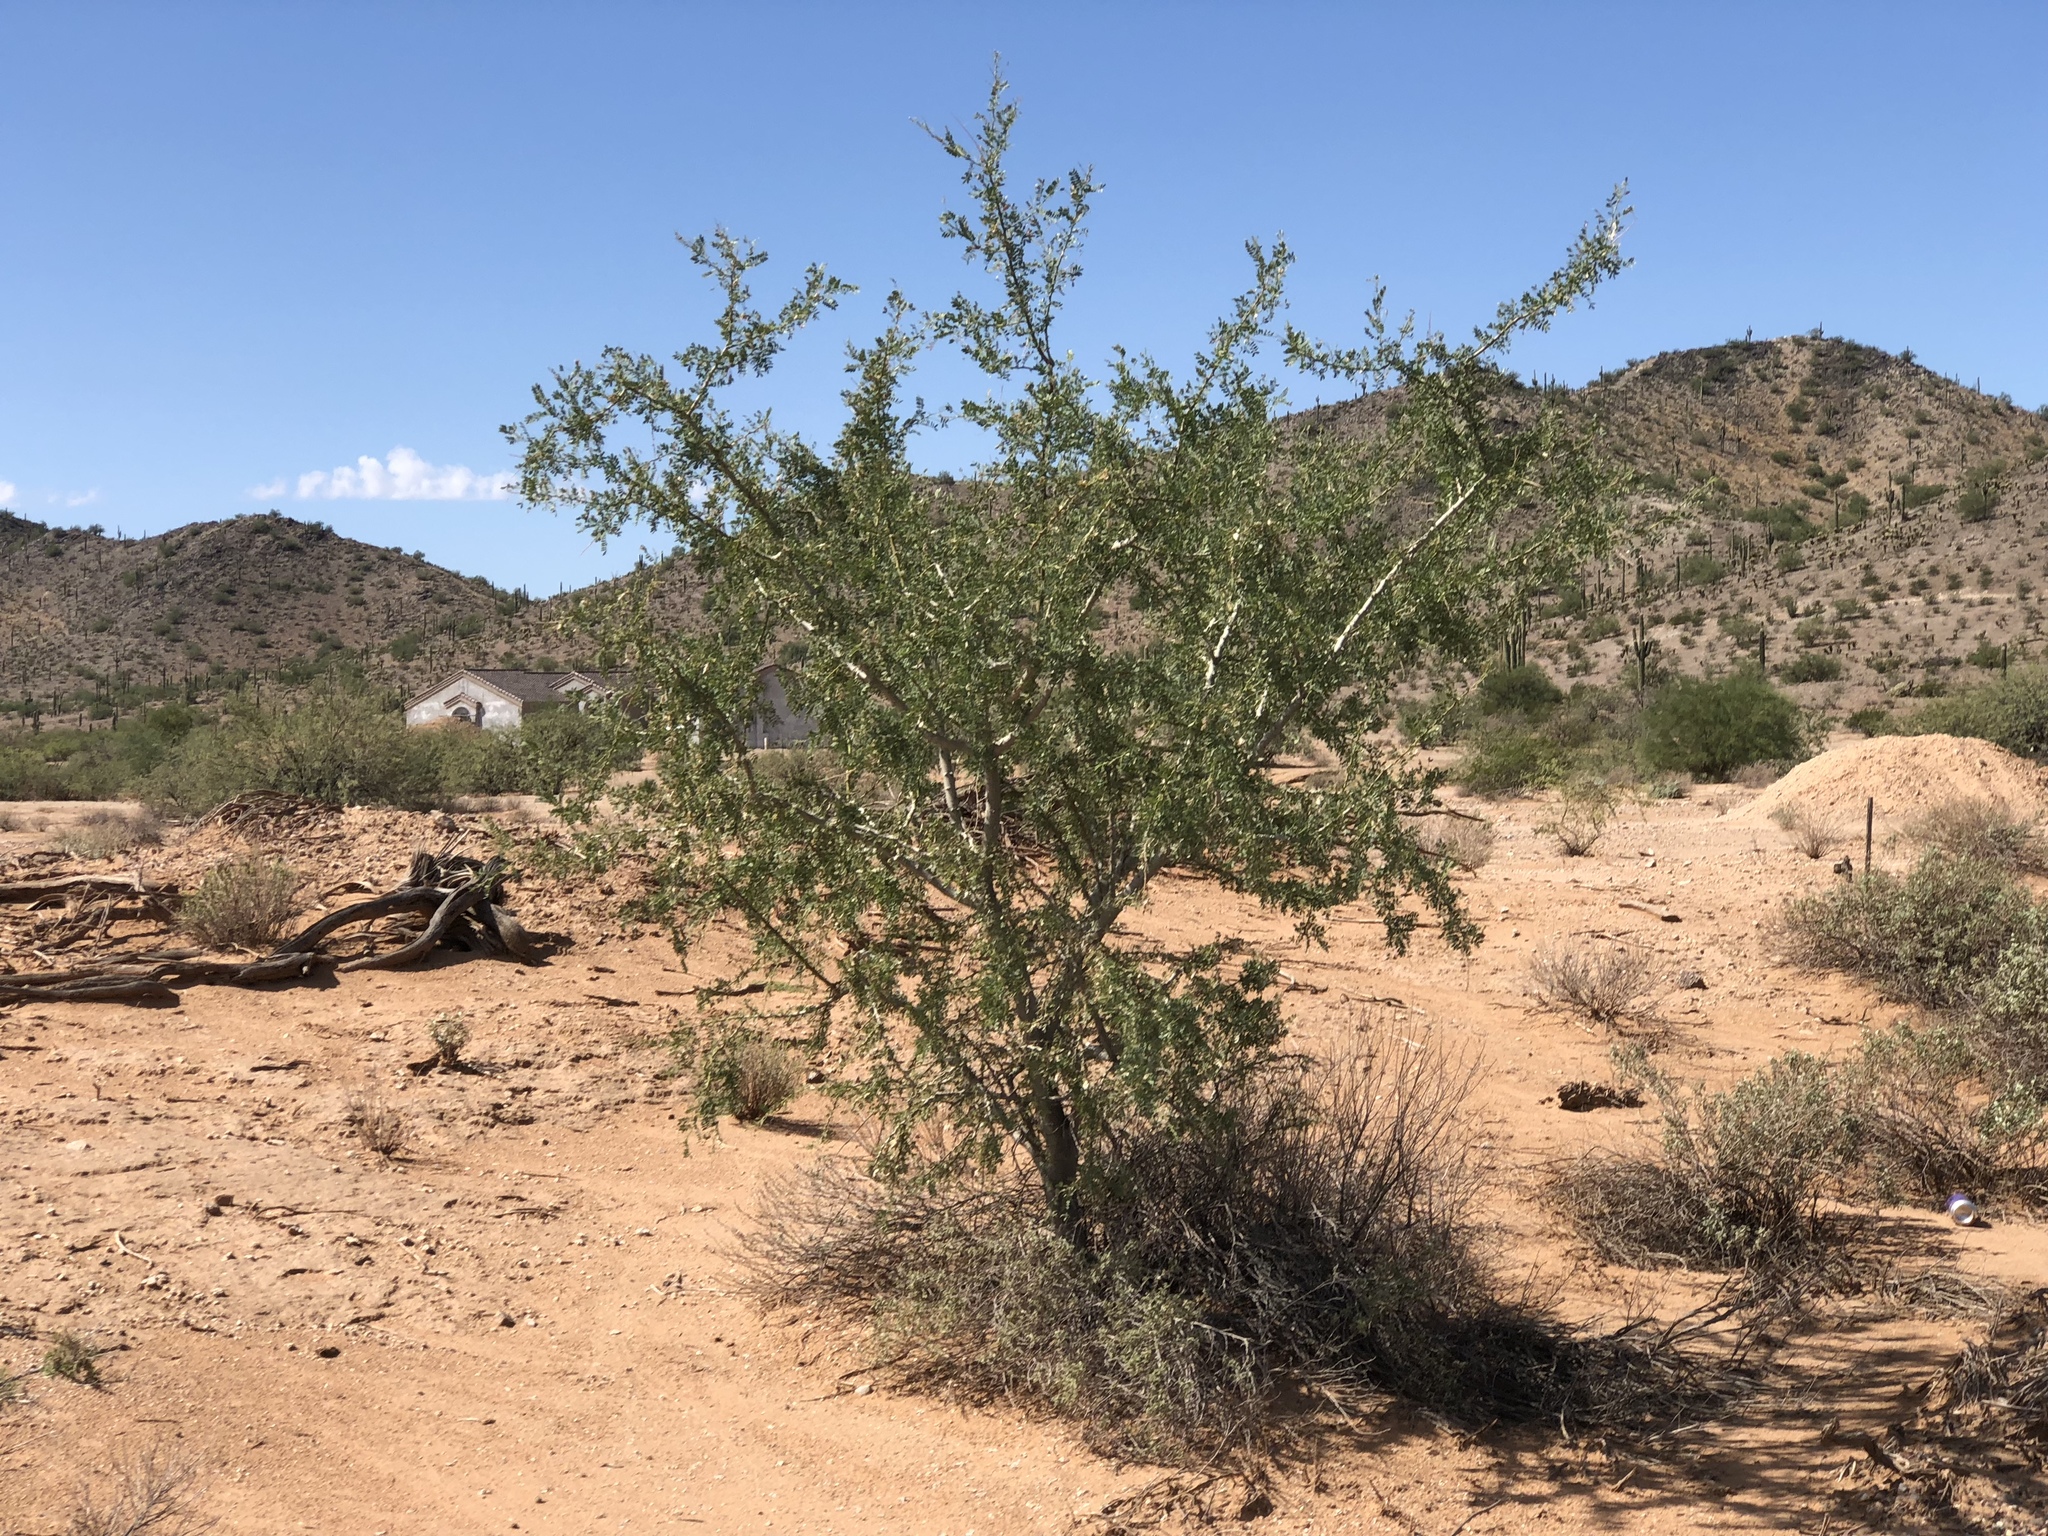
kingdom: Plantae
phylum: Tracheophyta
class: Magnoliopsida
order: Fabales
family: Fabaceae
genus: Olneya
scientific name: Olneya tesota
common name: Desert ironwood
